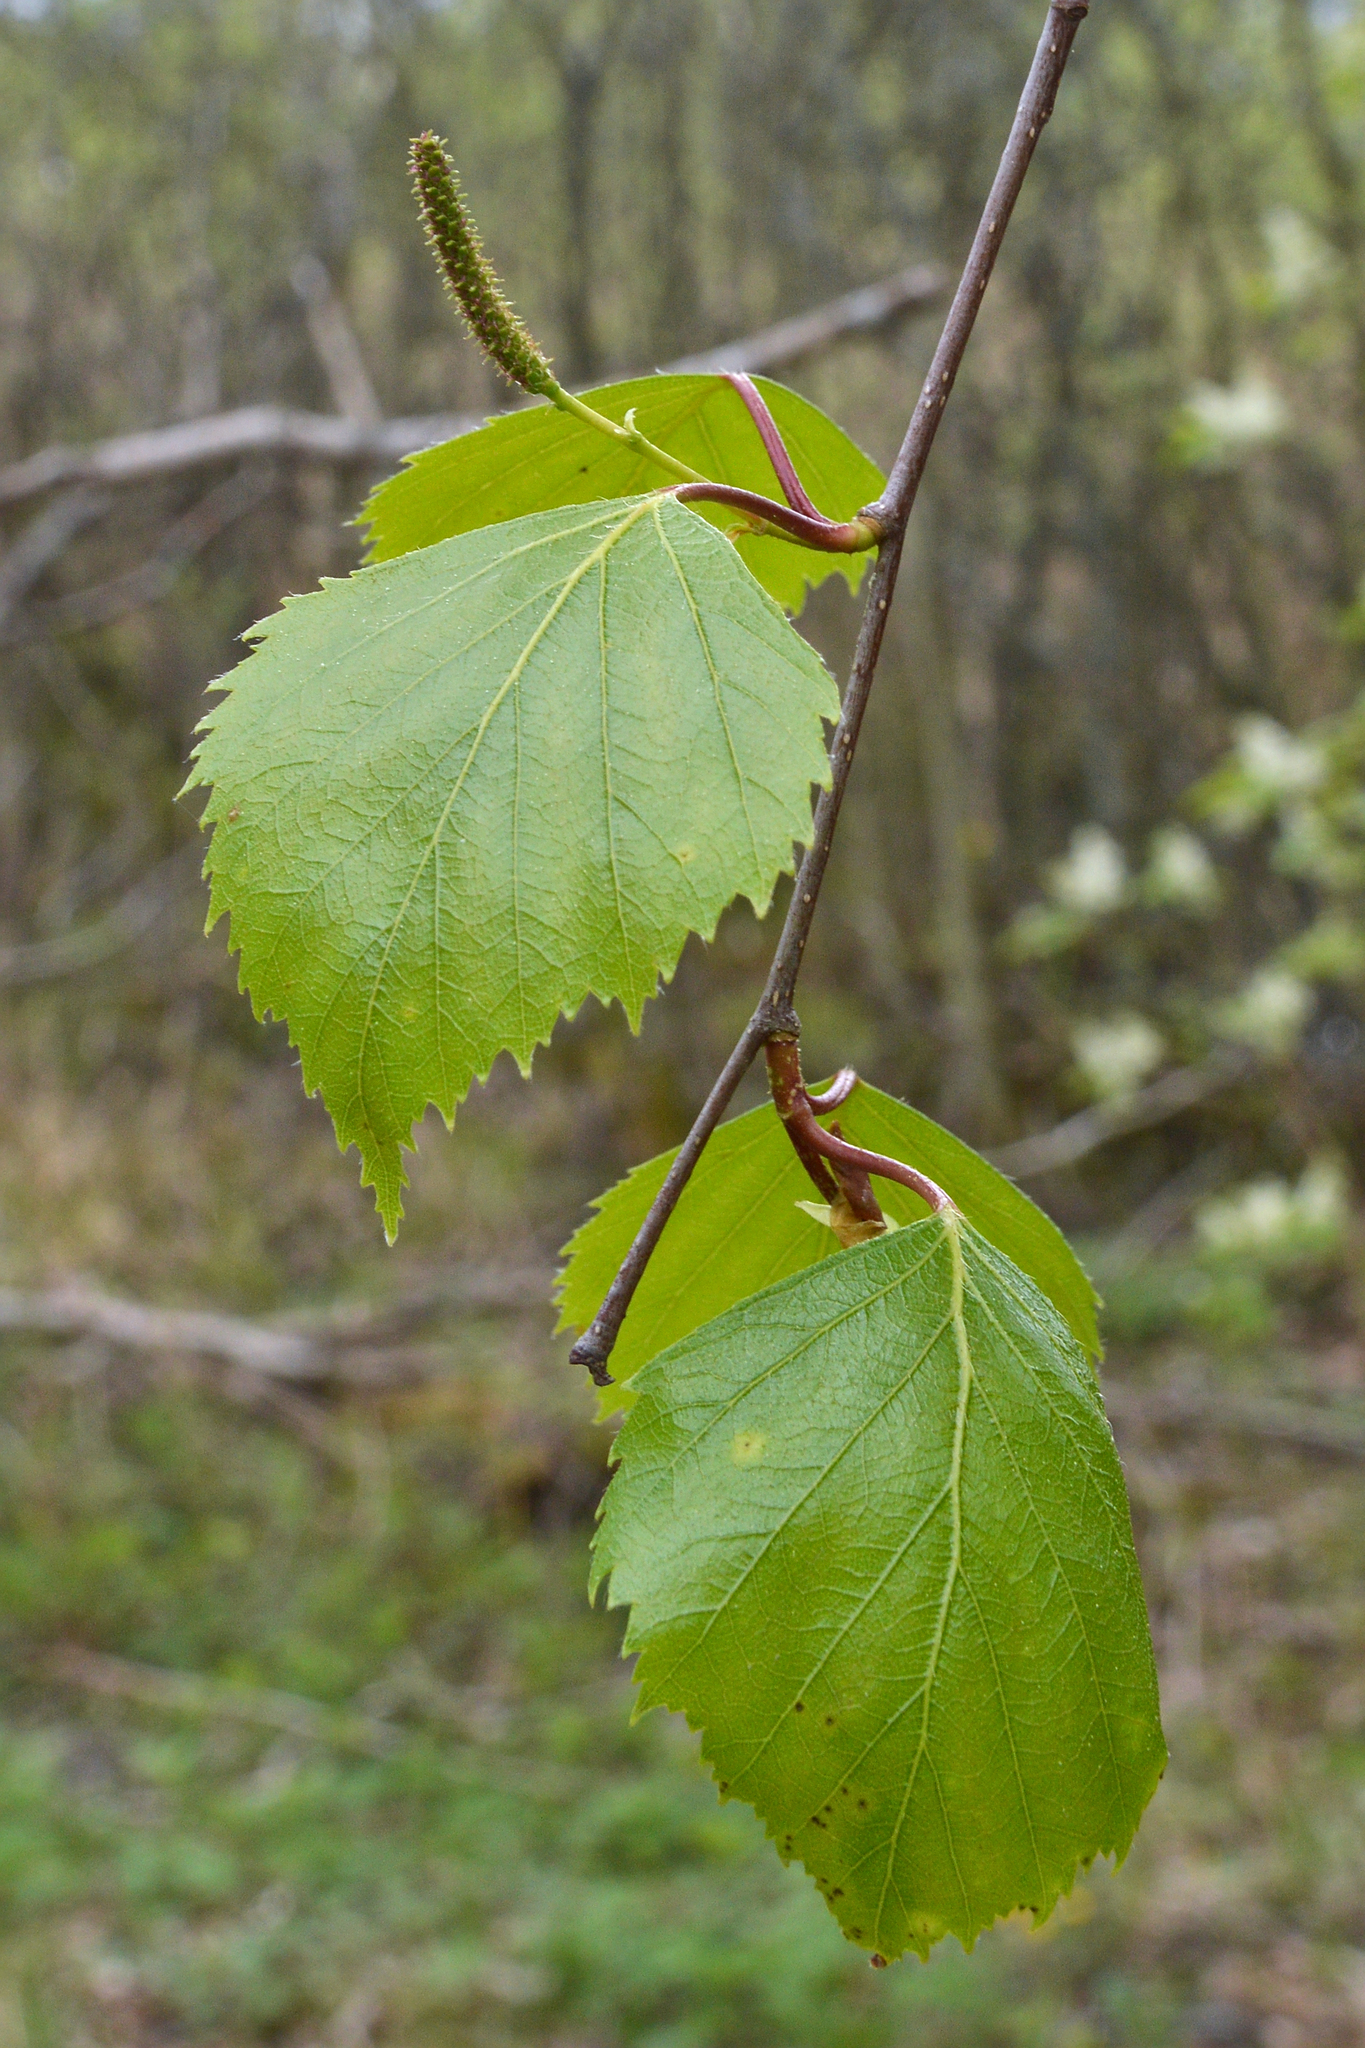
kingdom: Plantae
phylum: Tracheophyta
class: Magnoliopsida
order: Fagales
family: Betulaceae
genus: Betula
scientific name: Betula pubescens
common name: Downy birch
